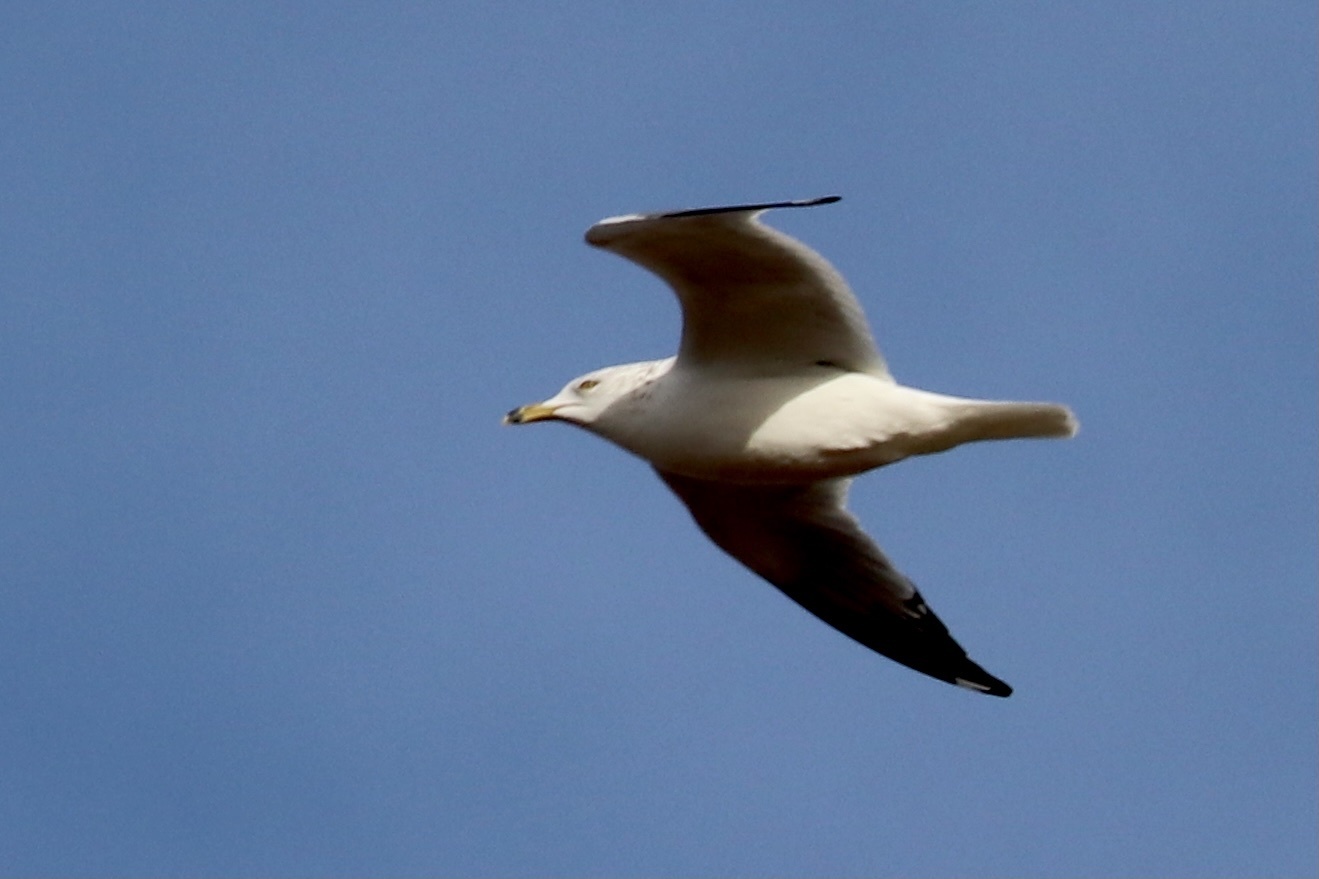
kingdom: Animalia
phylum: Chordata
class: Aves
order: Charadriiformes
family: Laridae
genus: Larus
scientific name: Larus delawarensis
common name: Ring-billed gull
